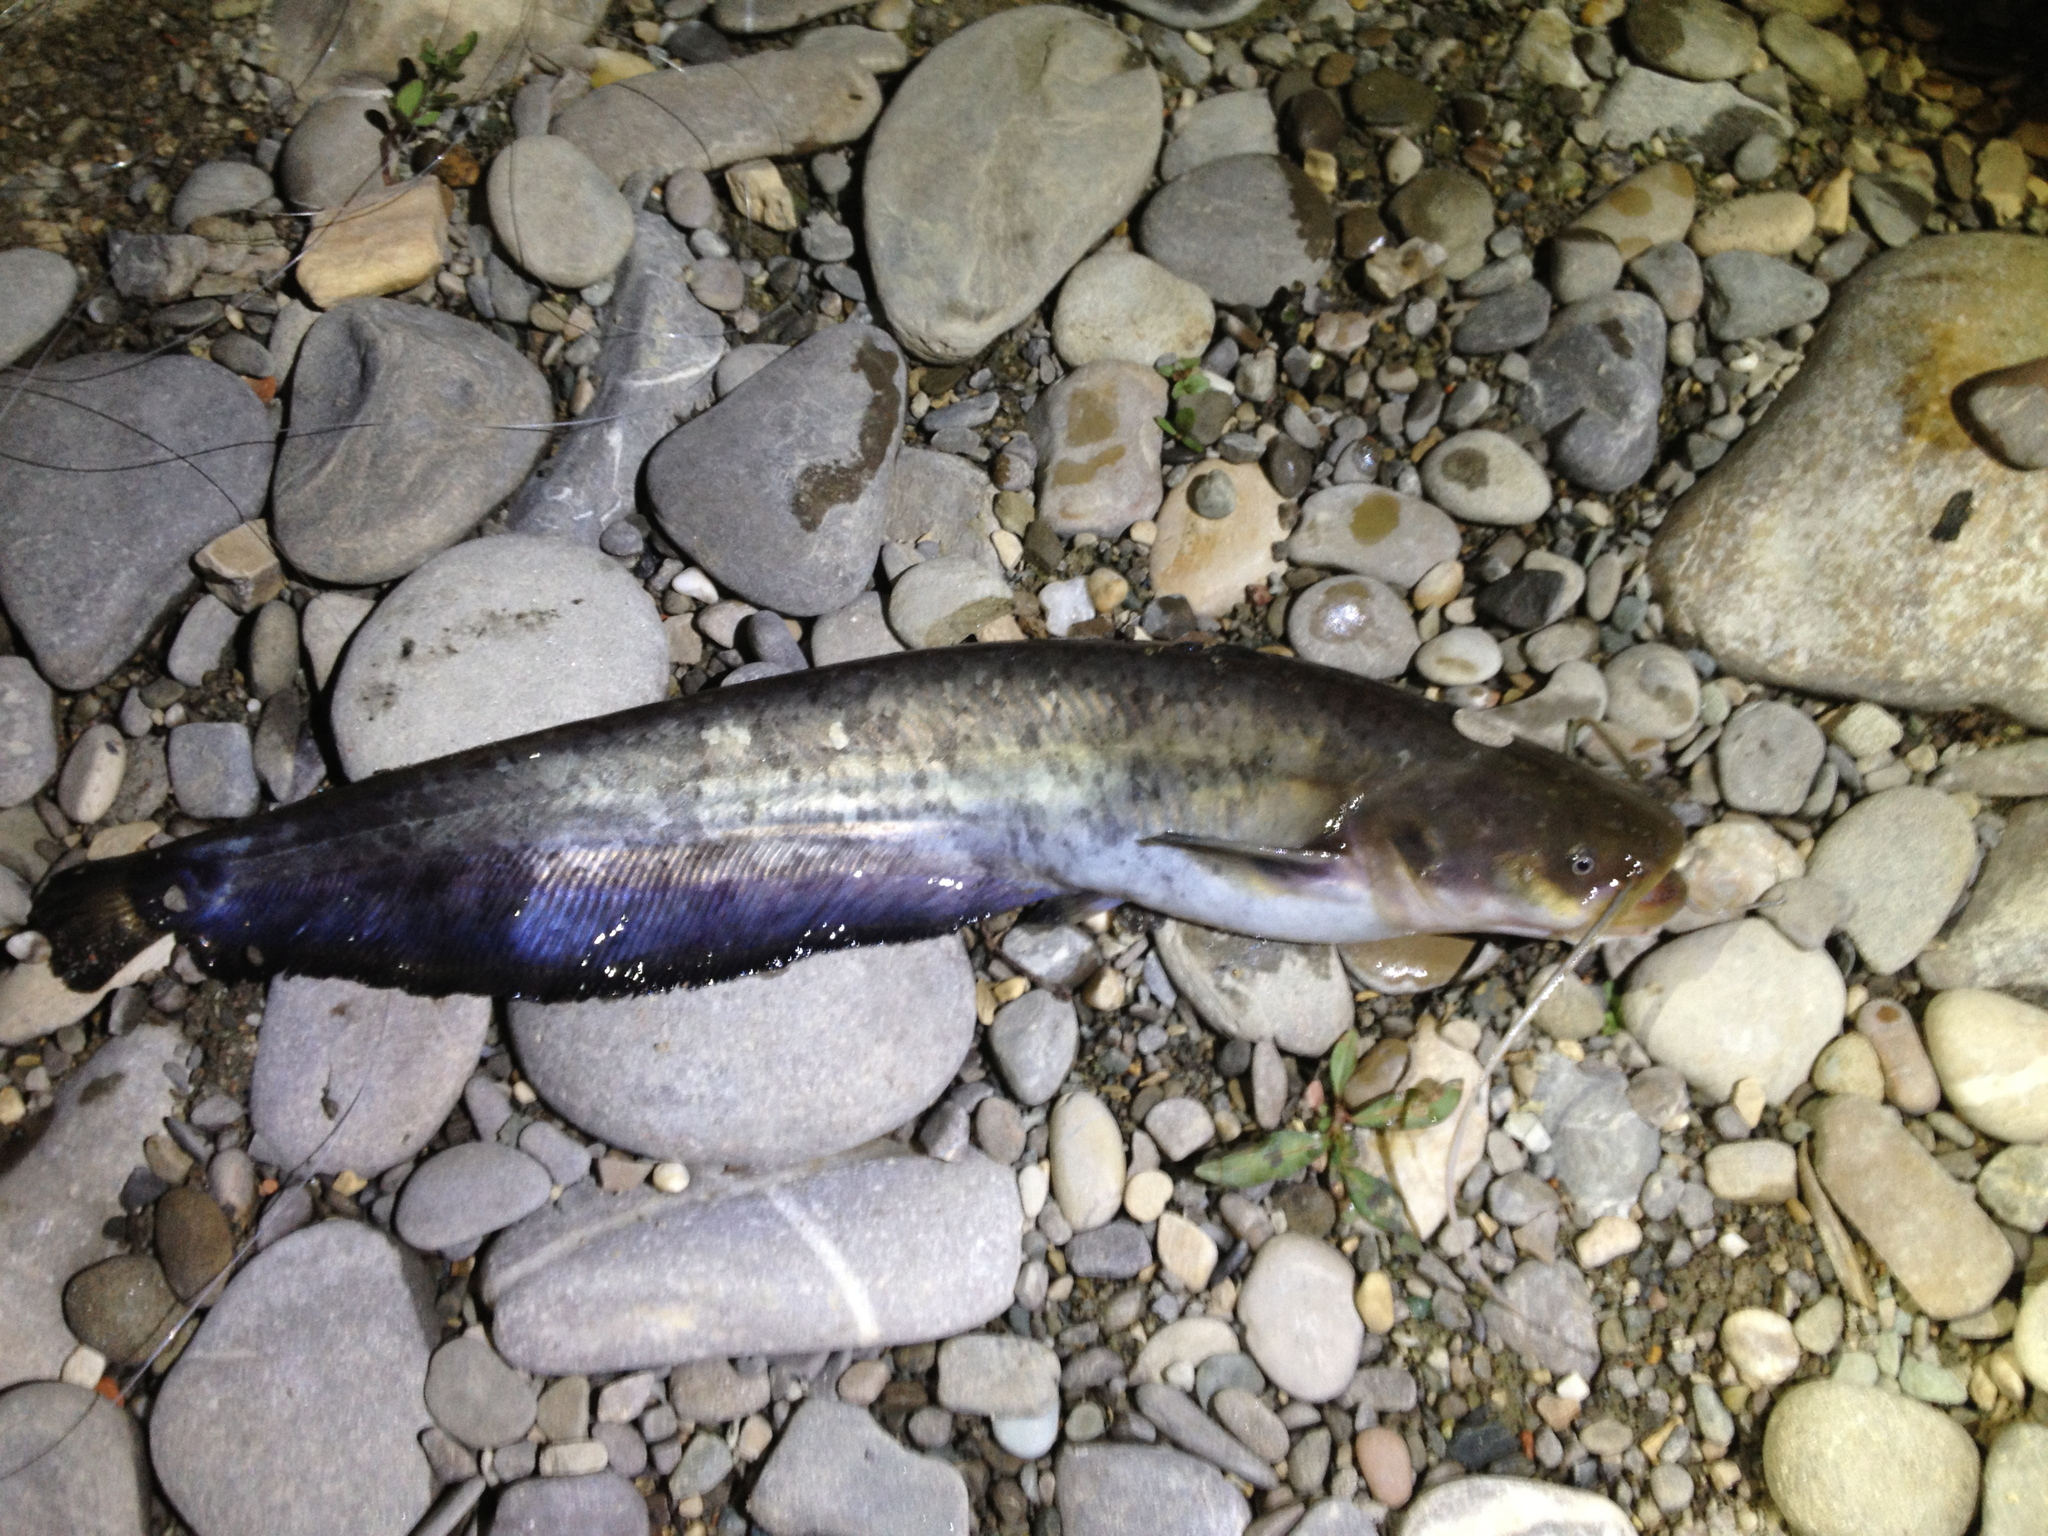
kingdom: Animalia
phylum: Chordata
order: Siluriformes
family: Siluridae
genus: Silurus
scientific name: Silurus glanis
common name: Wels
